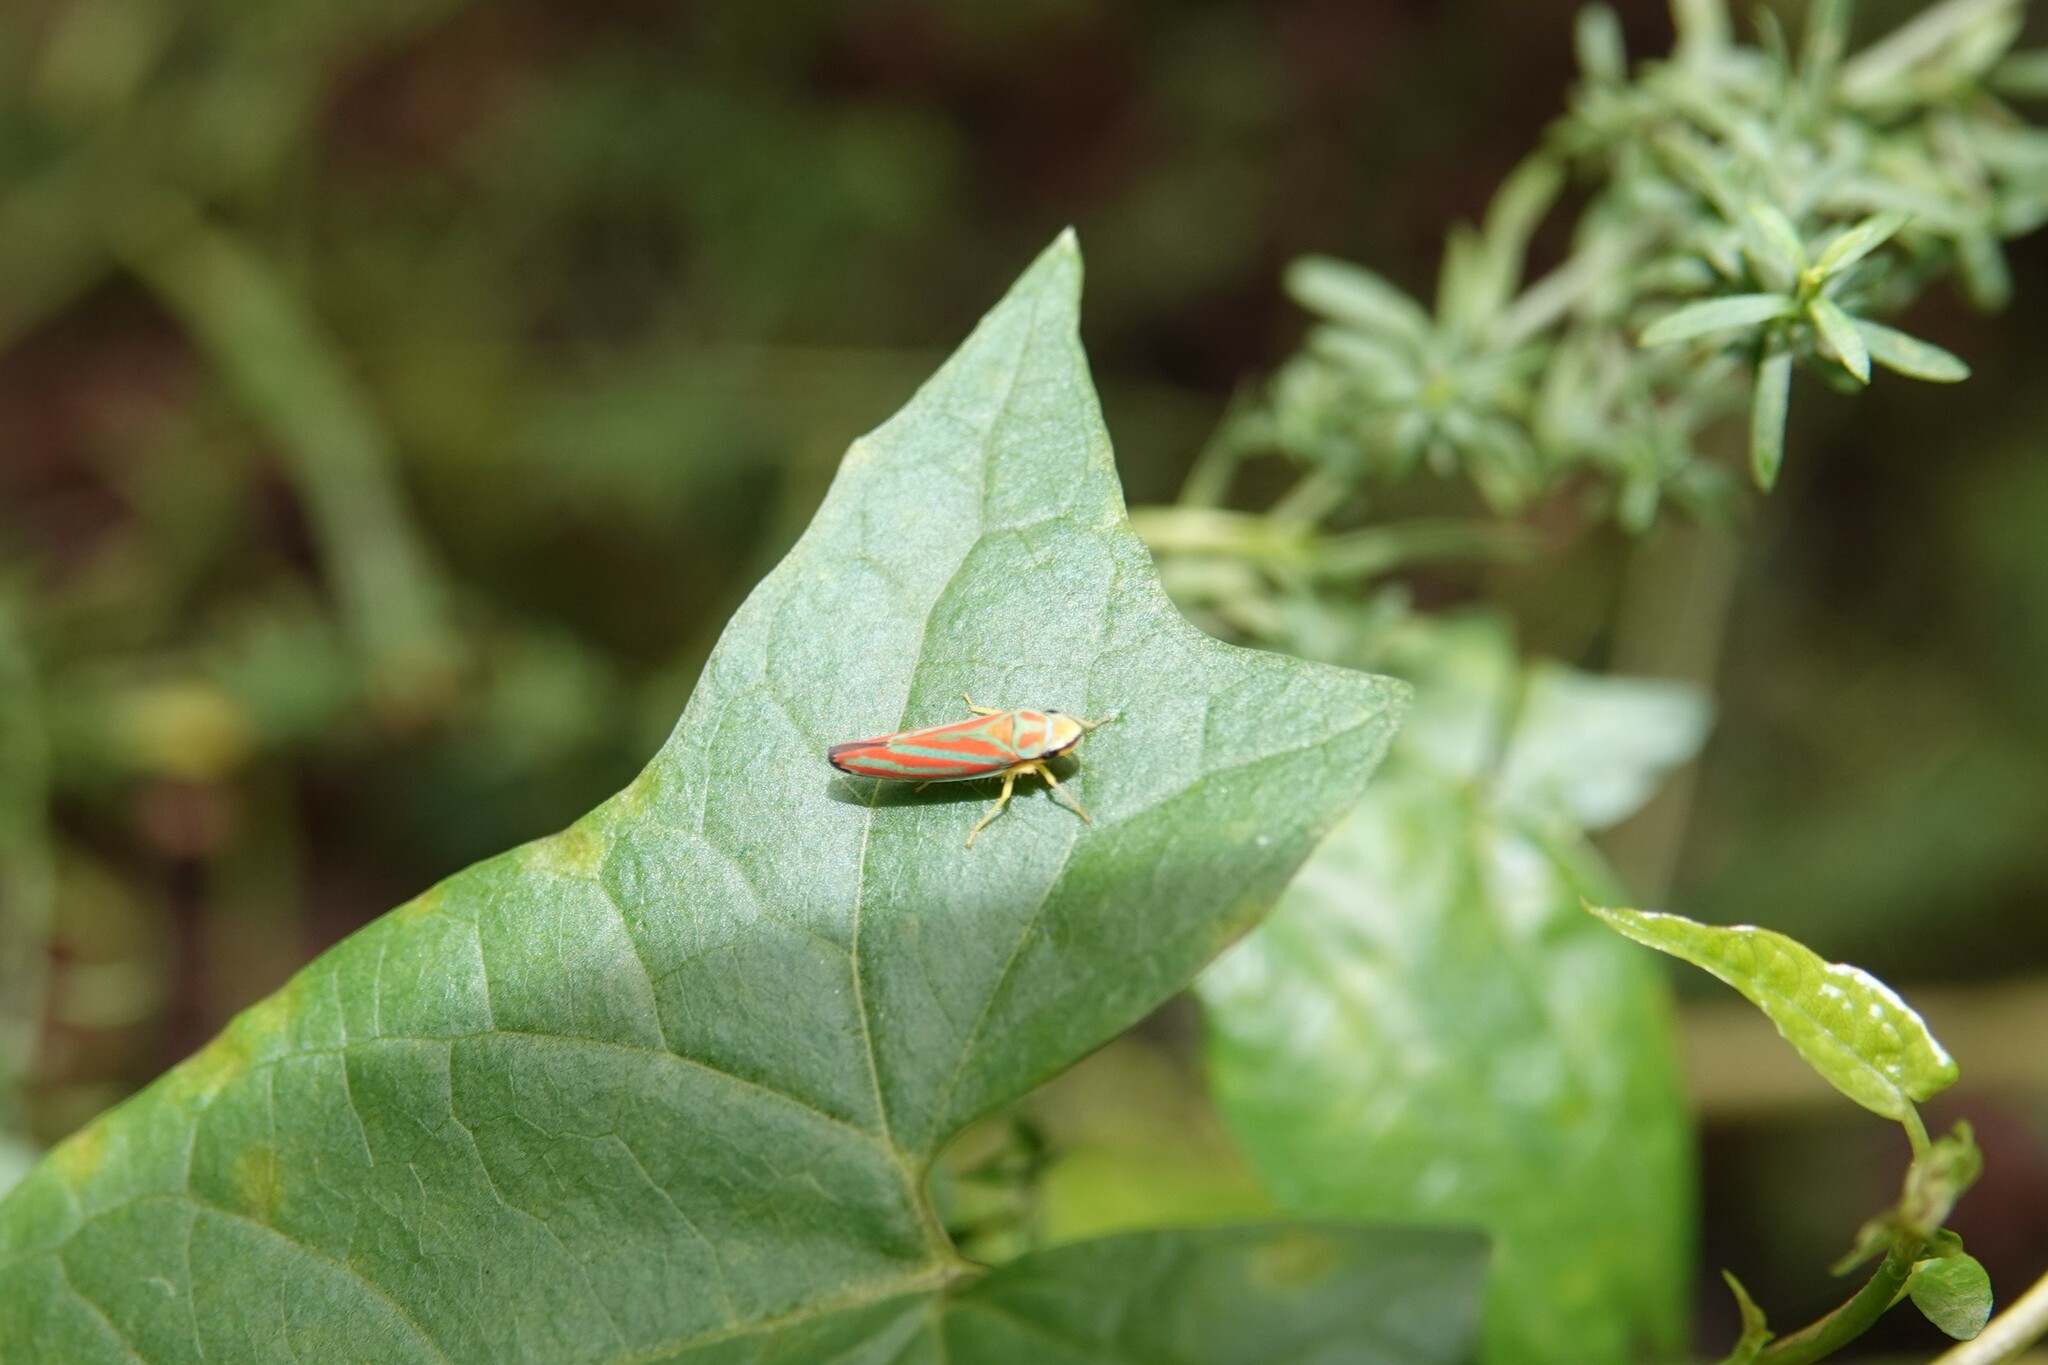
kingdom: Animalia
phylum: Arthropoda
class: Insecta
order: Hemiptera
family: Cicadellidae
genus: Graphocephala
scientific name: Graphocephala coccinea
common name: Candy-striped leafhopper
